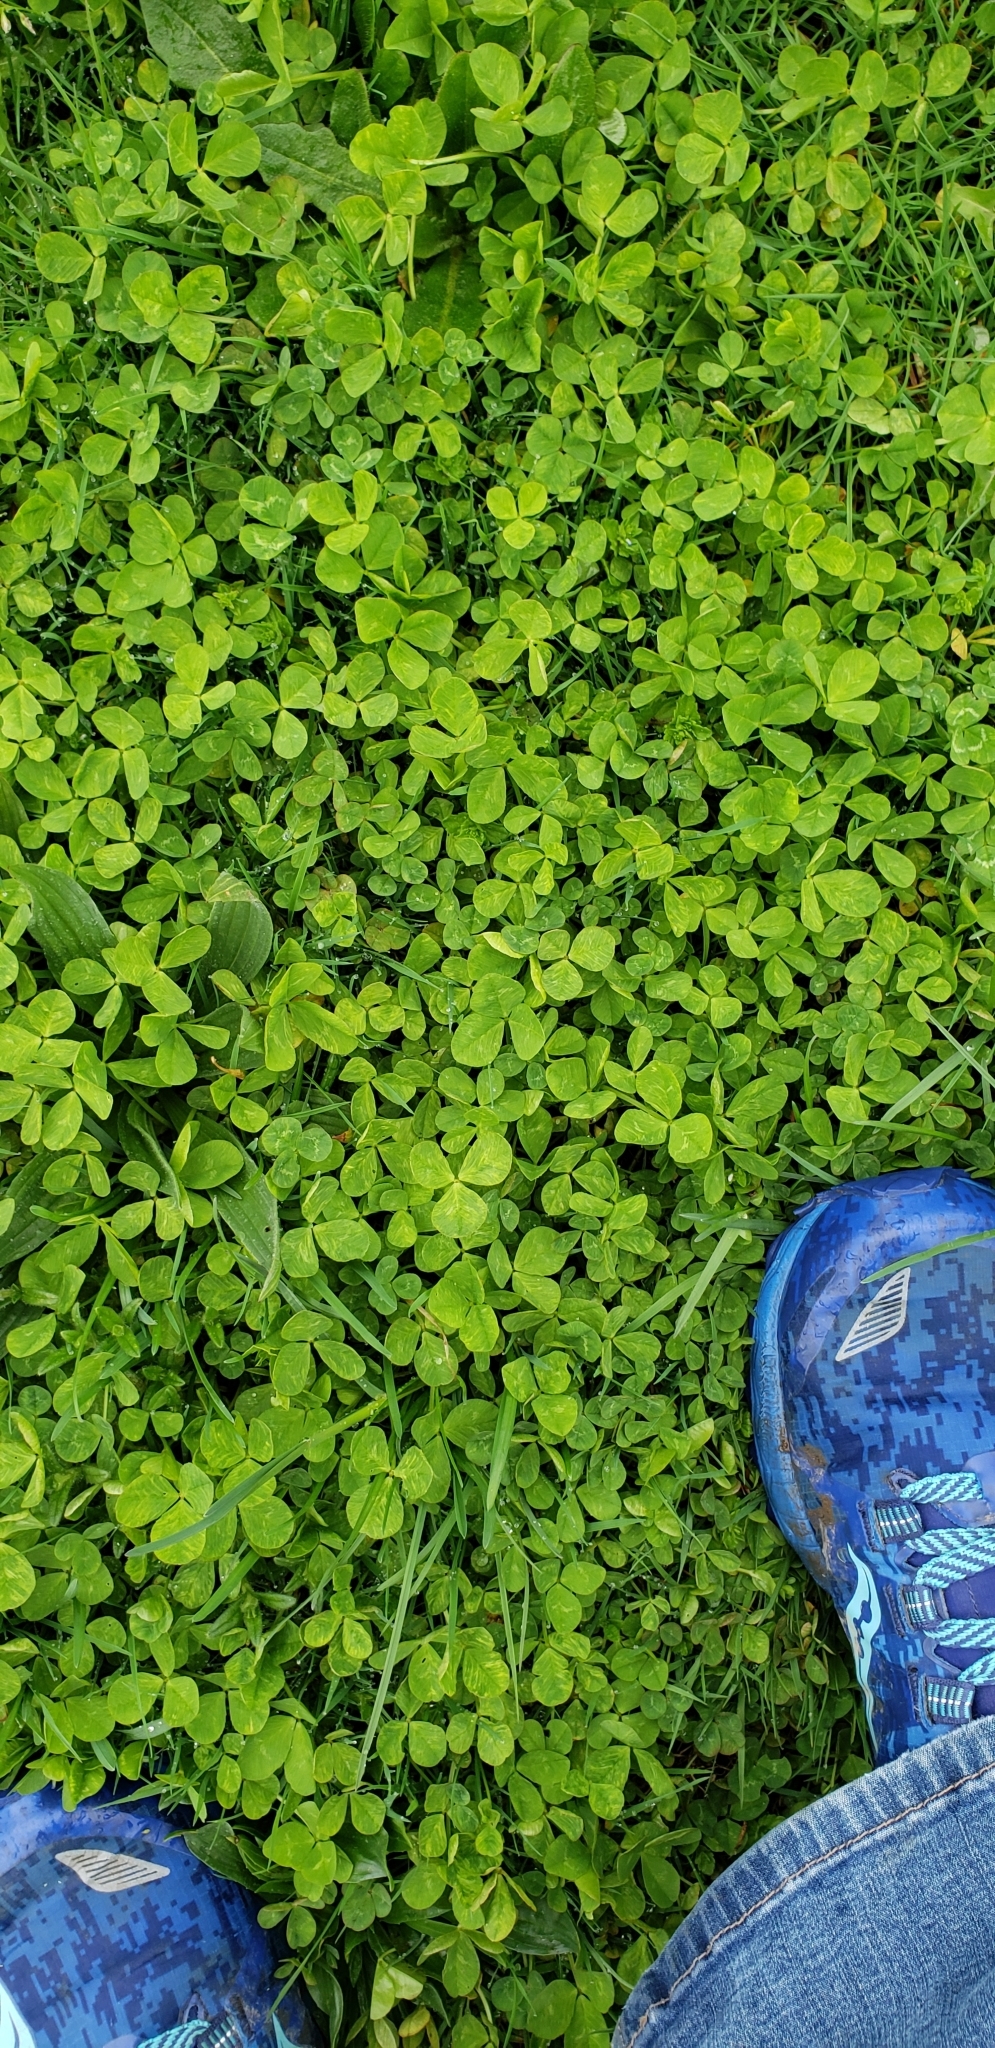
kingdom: Plantae
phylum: Tracheophyta
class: Magnoliopsida
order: Fabales
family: Fabaceae
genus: Trifolium
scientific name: Trifolium repens
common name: White clover
